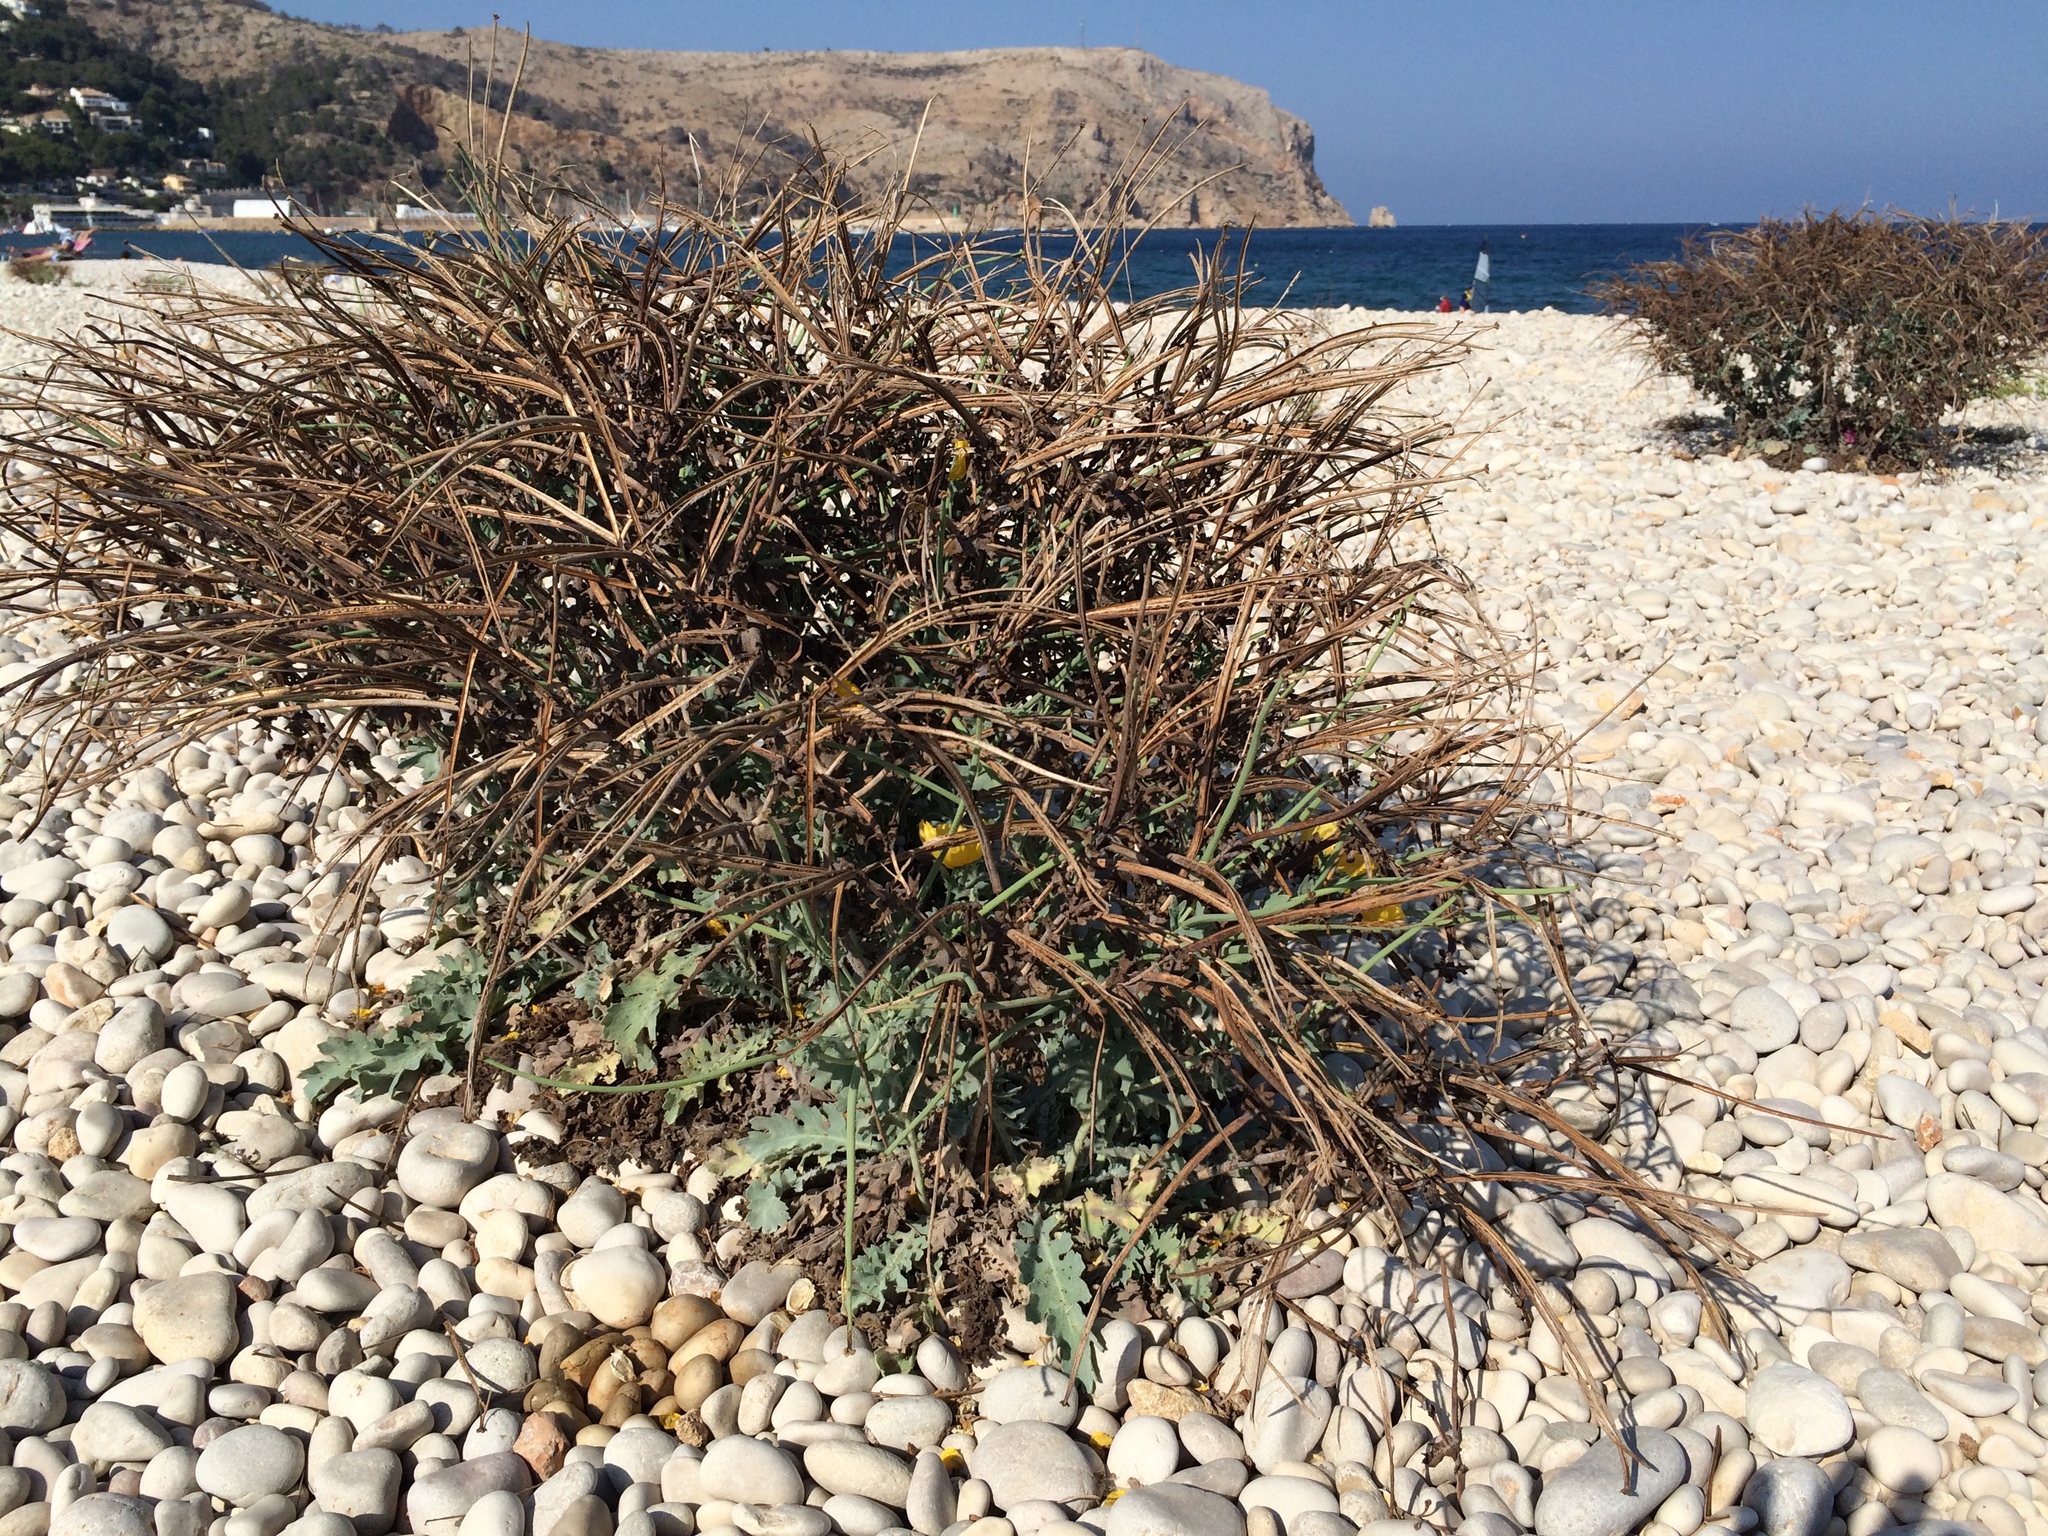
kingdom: Plantae
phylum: Tracheophyta
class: Magnoliopsida
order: Ranunculales
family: Papaveraceae
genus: Glaucium
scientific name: Glaucium flavum
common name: Yellow horned-poppy
